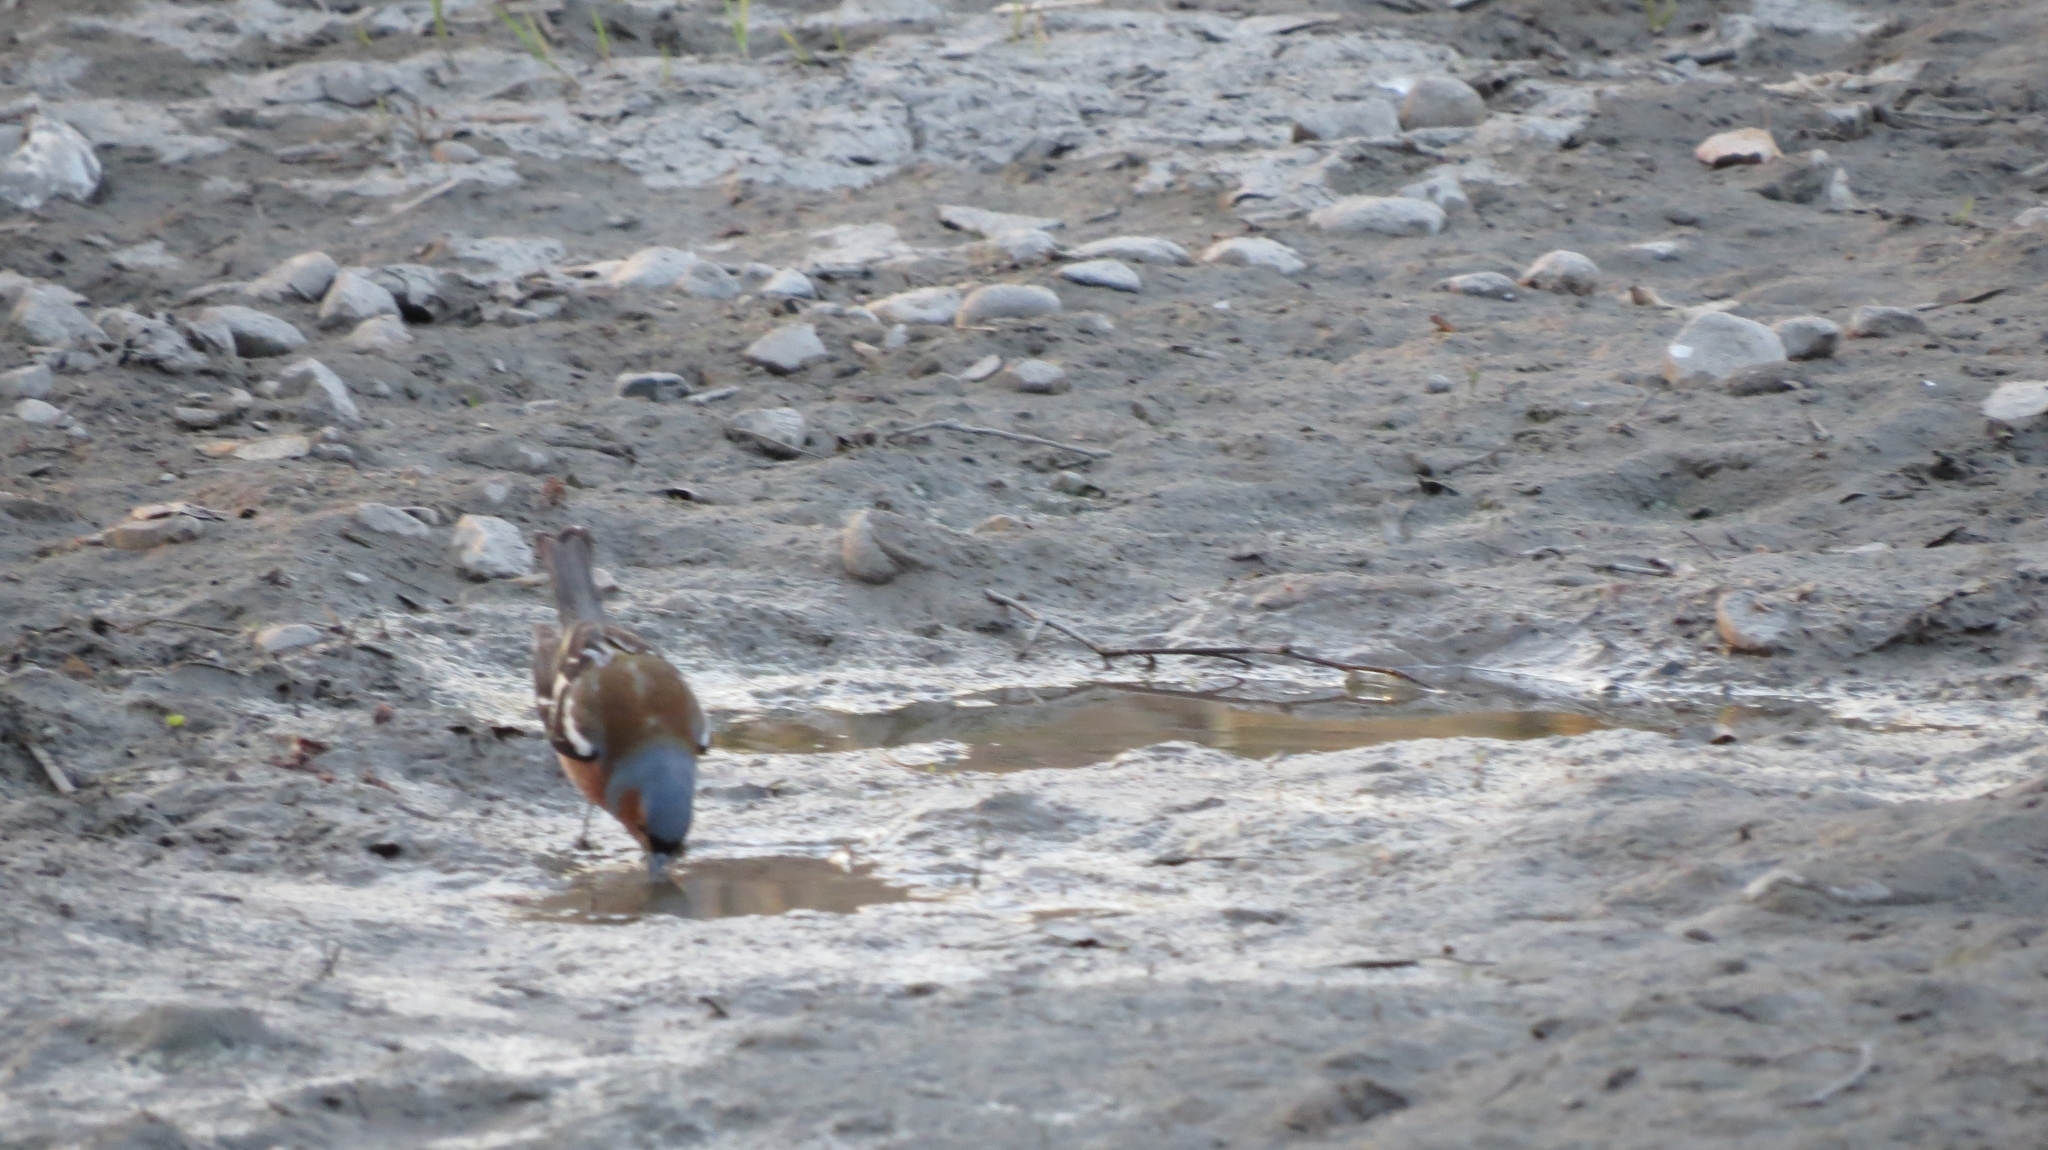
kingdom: Animalia
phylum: Chordata
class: Aves
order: Passeriformes
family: Fringillidae
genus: Fringilla
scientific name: Fringilla coelebs
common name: Common chaffinch
